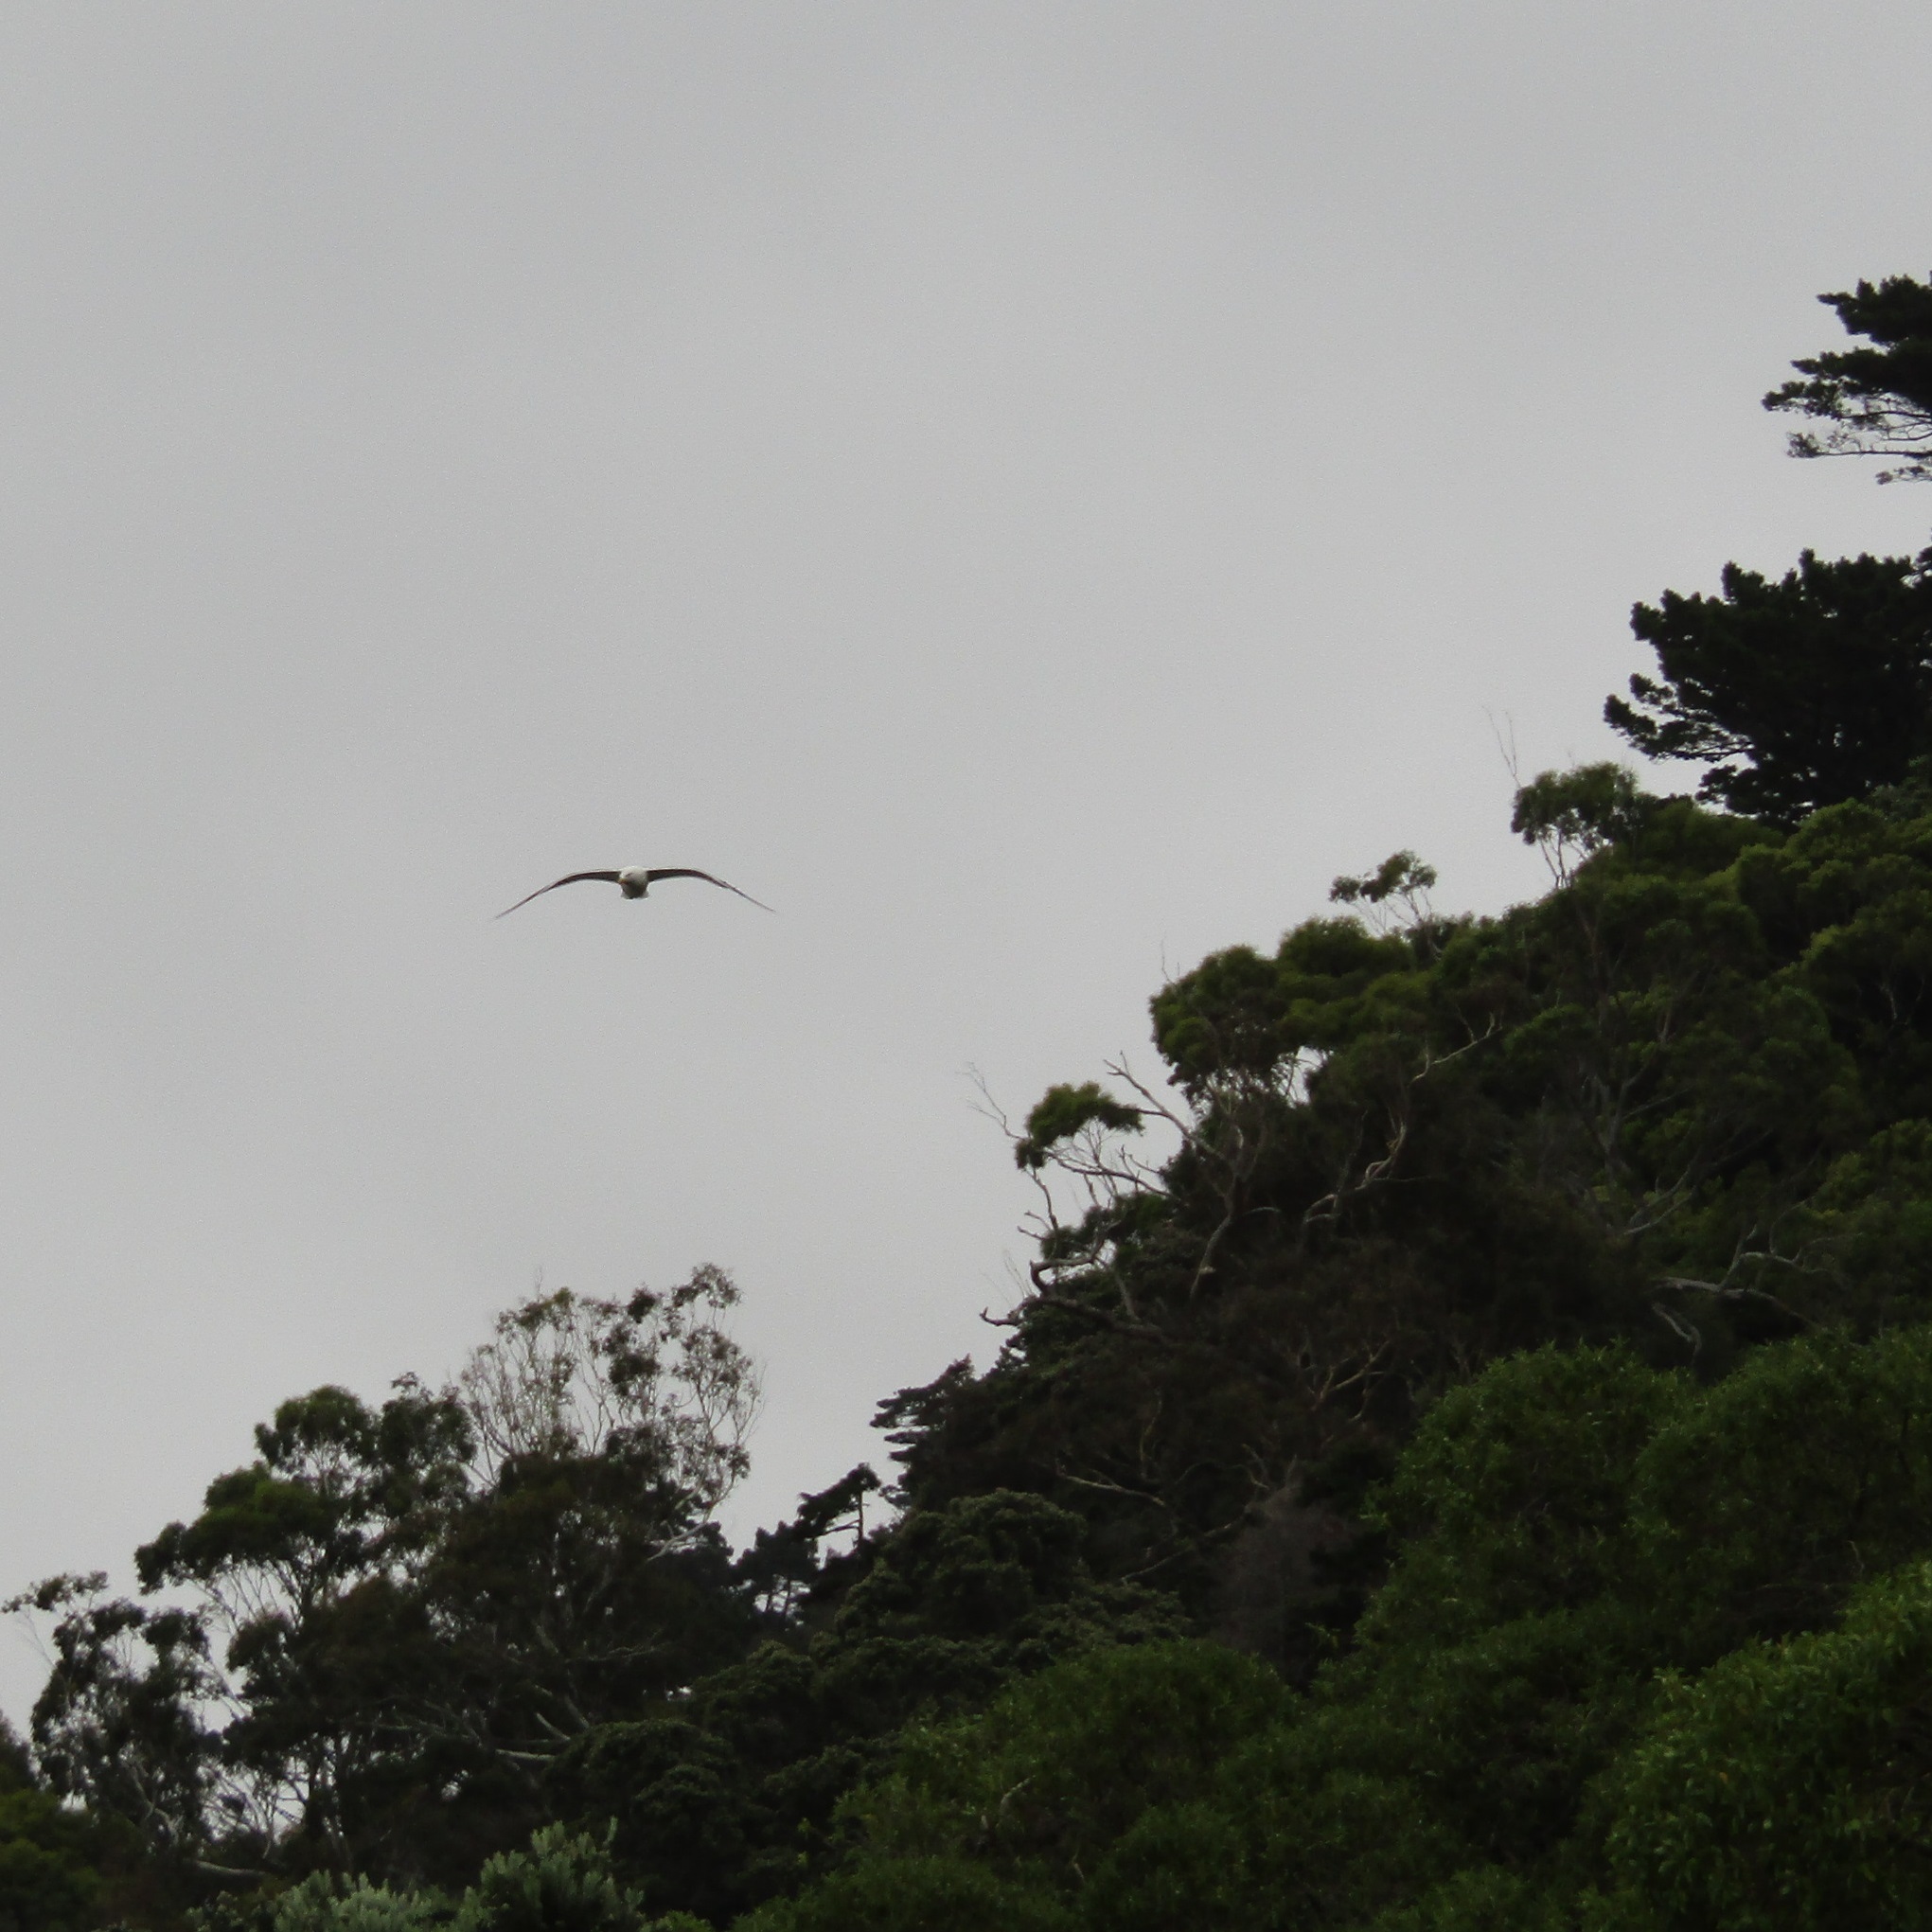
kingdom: Animalia
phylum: Chordata
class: Aves
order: Charadriiformes
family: Laridae
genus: Larus
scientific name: Larus dominicanus
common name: Kelp gull
